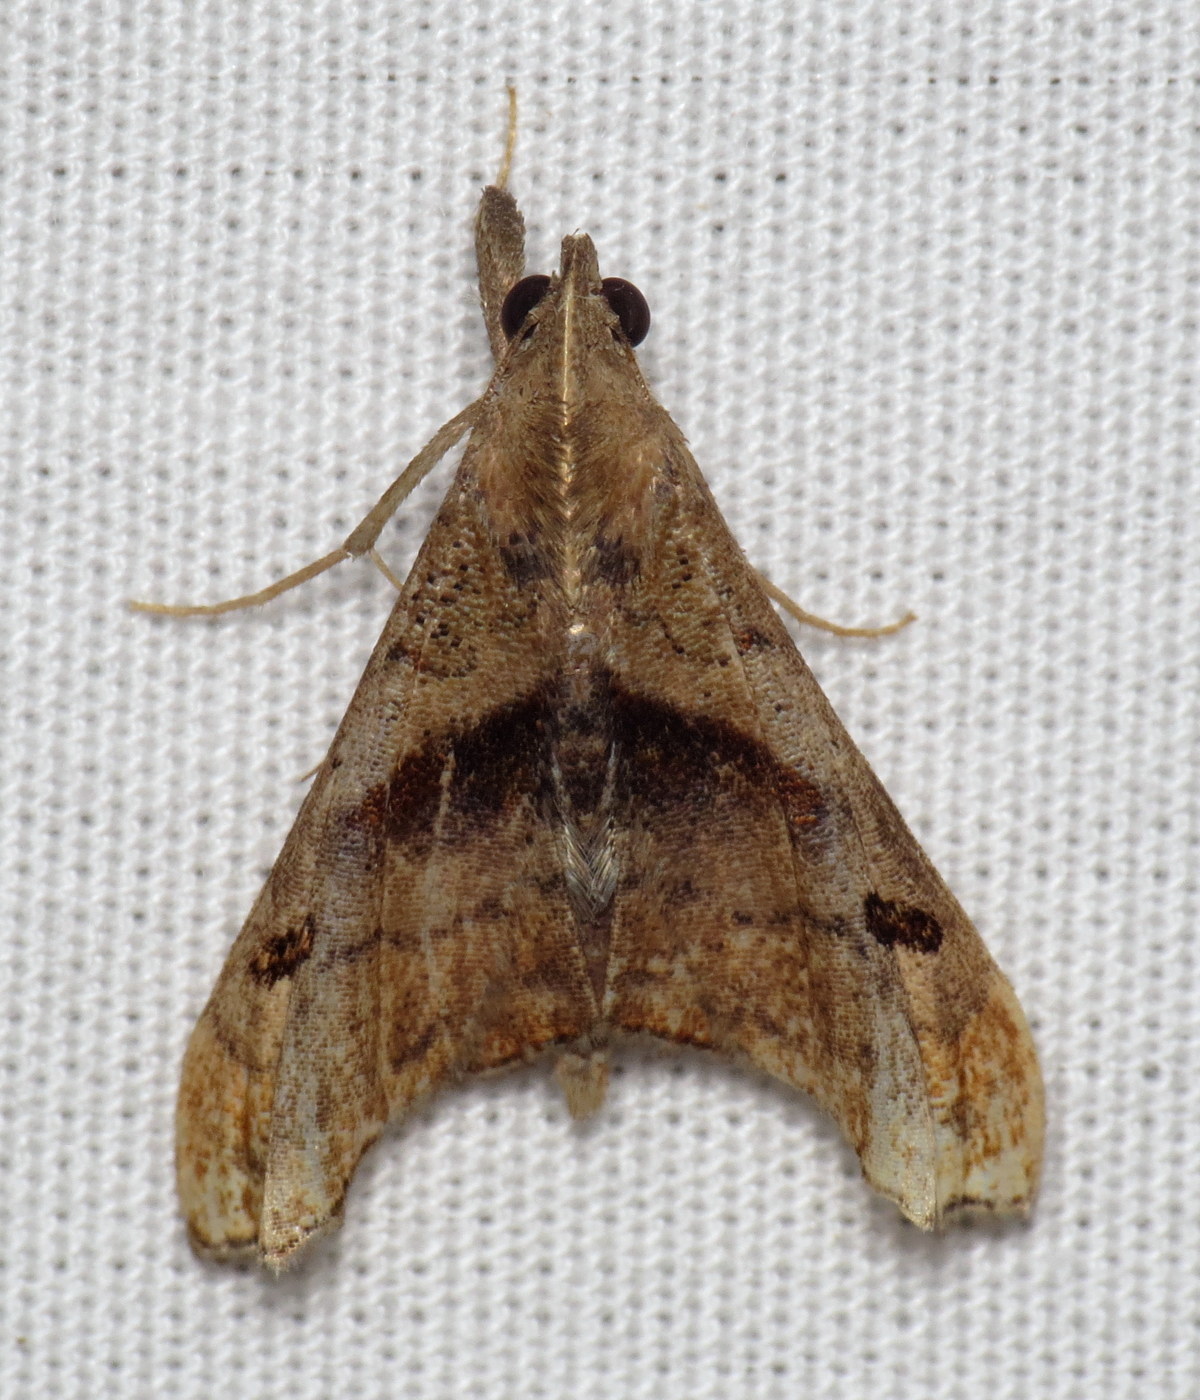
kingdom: Animalia
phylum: Arthropoda
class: Insecta
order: Lepidoptera
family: Erebidae
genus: Palthis
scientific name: Palthis angulalis
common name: Dark-spotted palthis moth
